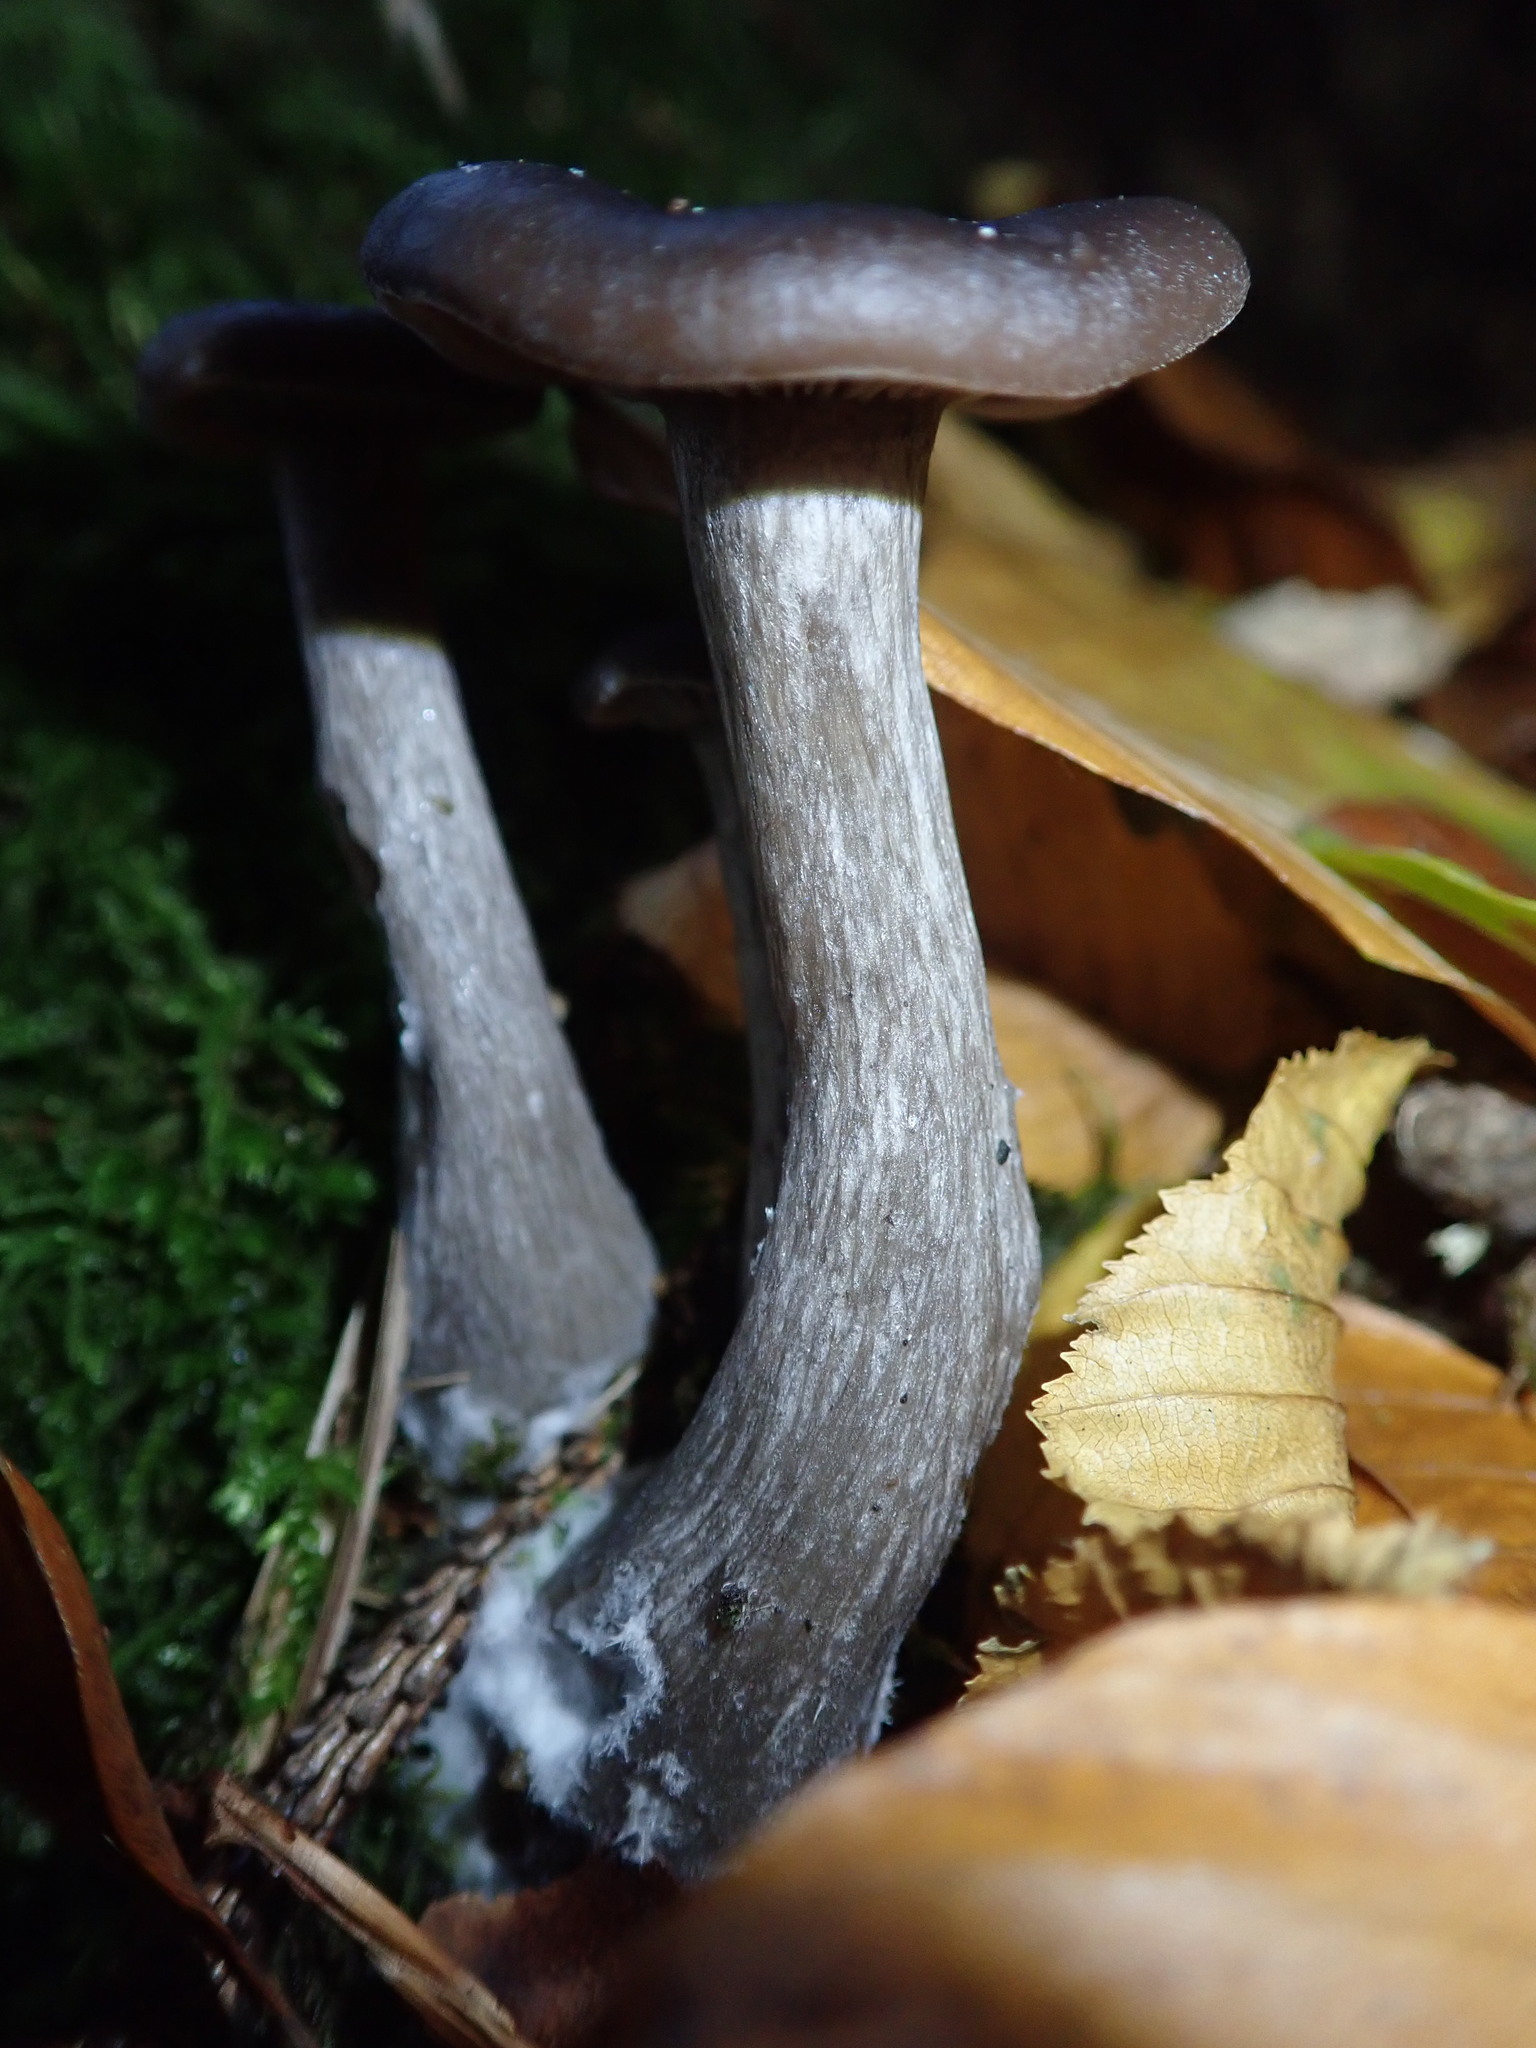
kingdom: Fungi
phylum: Basidiomycota
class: Agaricomycetes
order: Agaricales
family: Pseudoclitocybaceae
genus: Pseudoclitocybe
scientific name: Pseudoclitocybe cyathiformis
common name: Goblet
